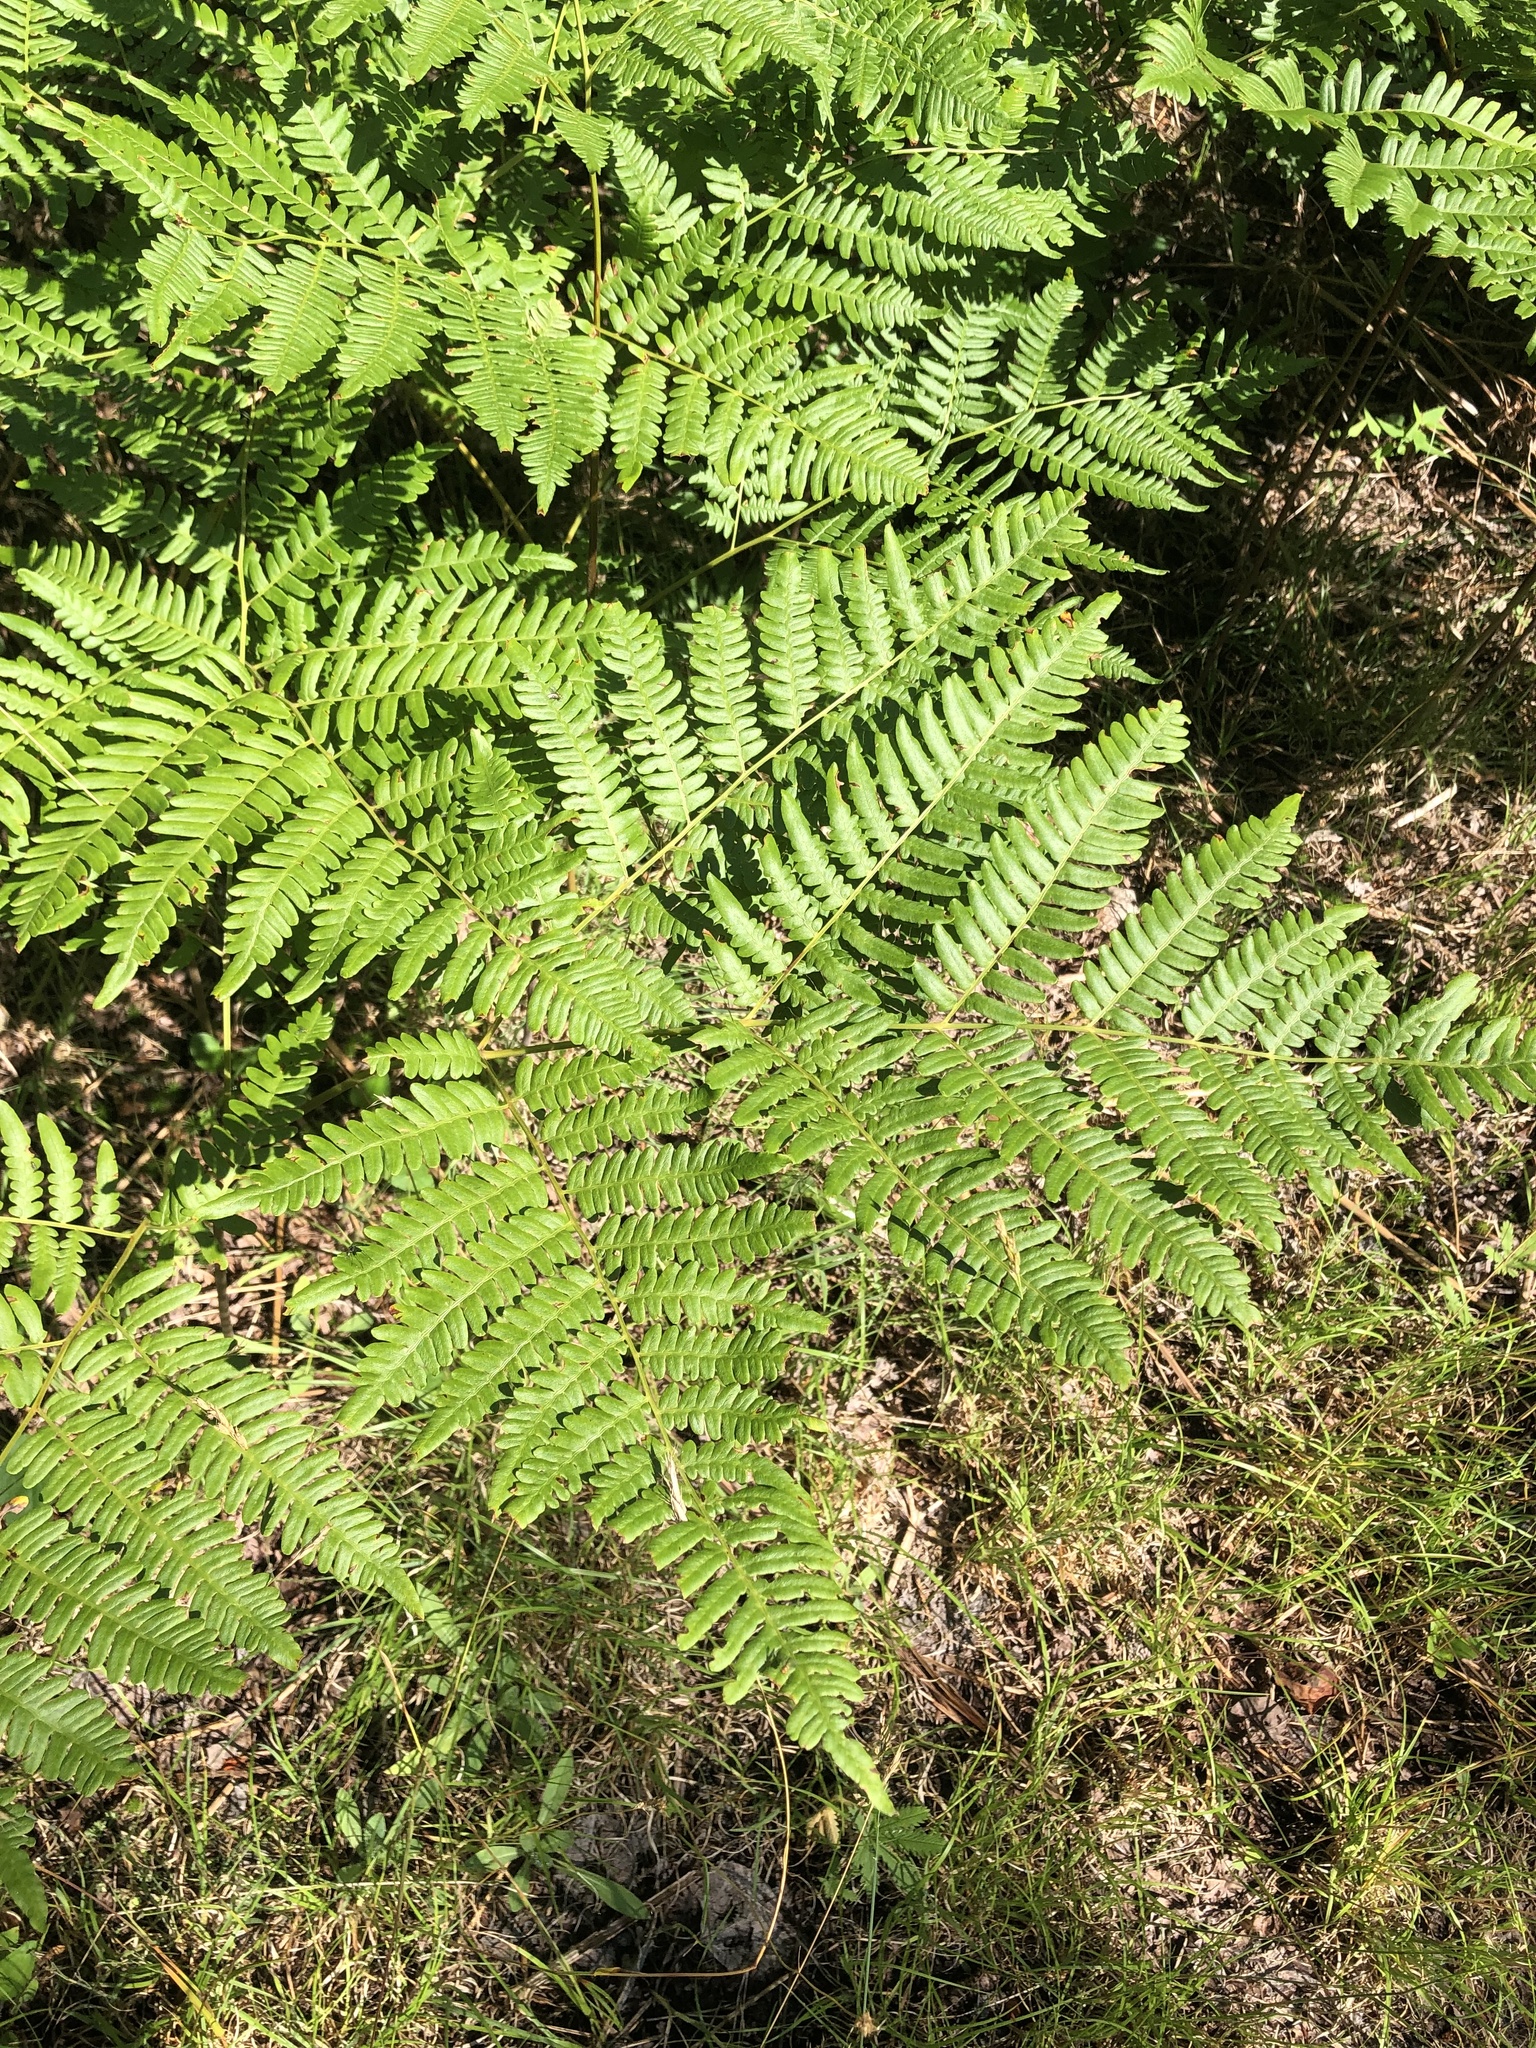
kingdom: Plantae
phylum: Tracheophyta
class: Polypodiopsida
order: Polypodiales
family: Dennstaedtiaceae
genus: Pteridium
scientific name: Pteridium aquilinum
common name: Bracken
